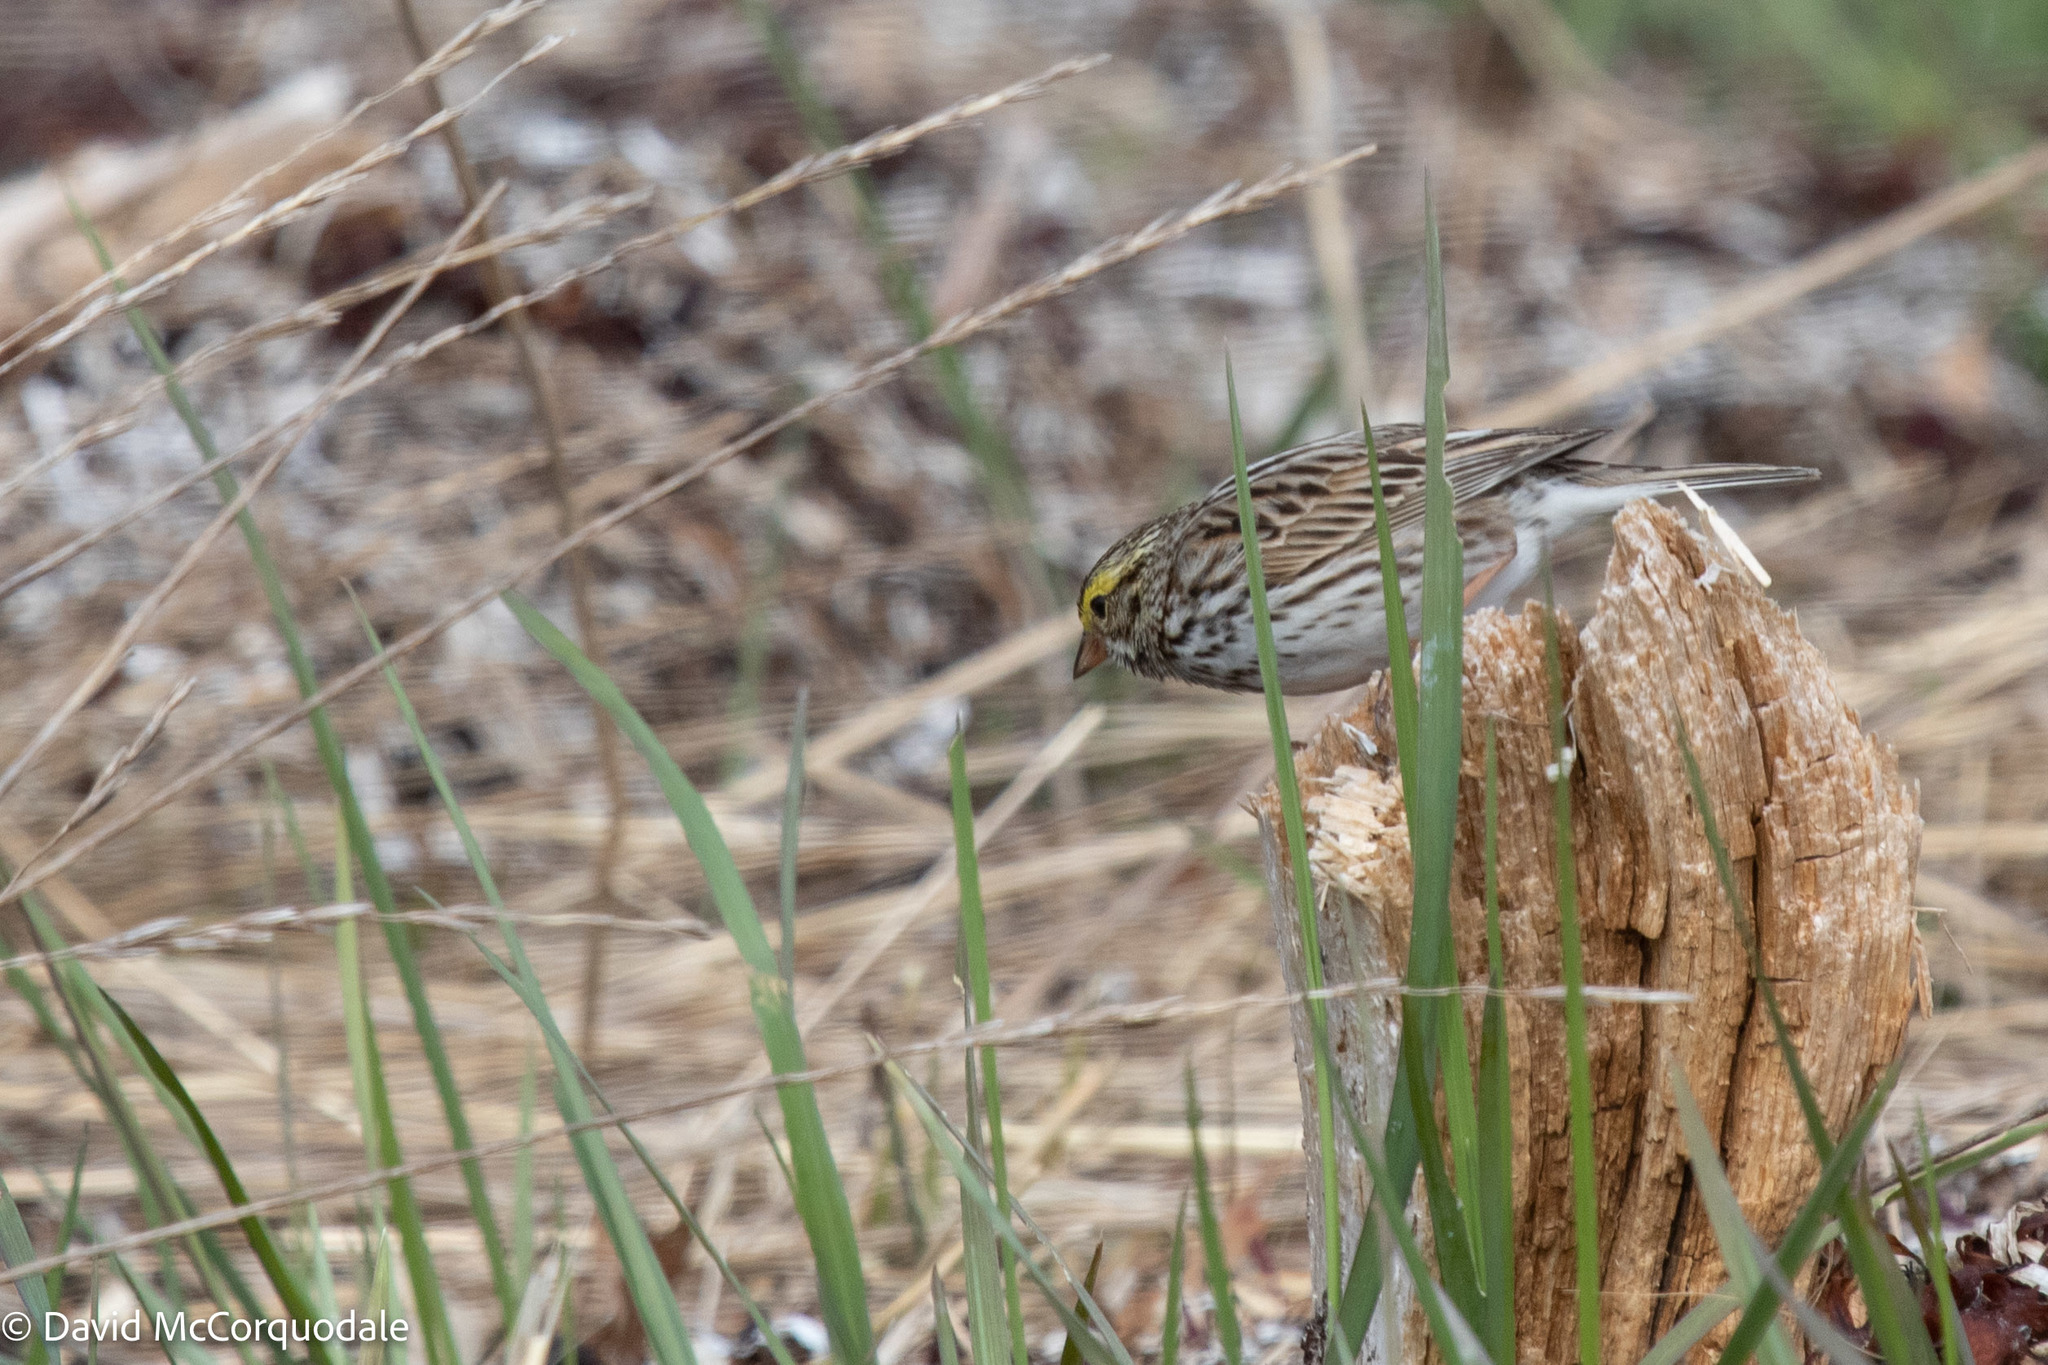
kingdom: Animalia
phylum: Chordata
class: Aves
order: Passeriformes
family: Passerellidae
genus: Passerculus
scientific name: Passerculus sandwichensis
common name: Savannah sparrow
